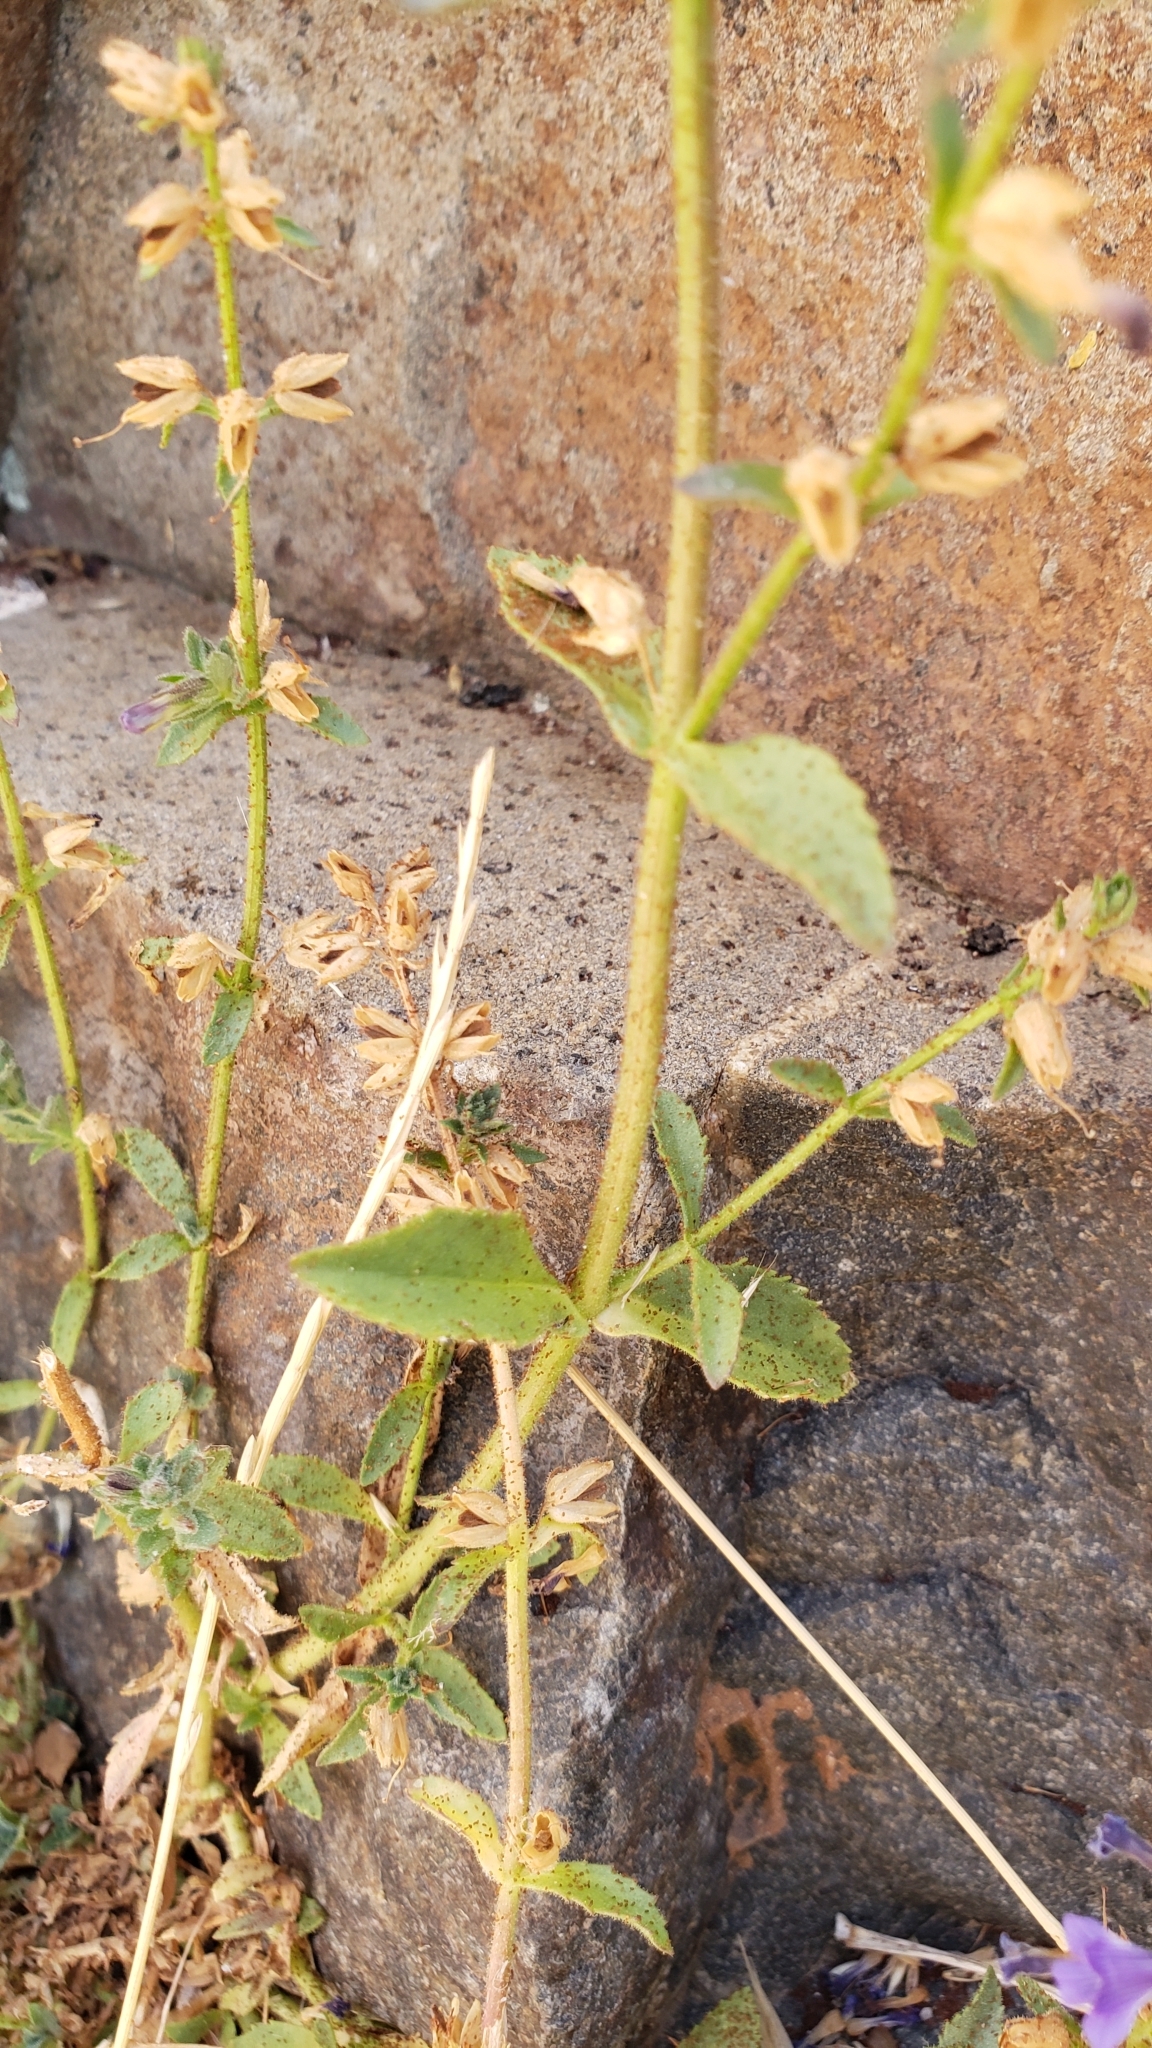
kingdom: Plantae
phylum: Tracheophyta
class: Magnoliopsida
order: Lamiales
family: Plantaginaceae
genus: Stemodia
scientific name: Stemodia durantifolia
